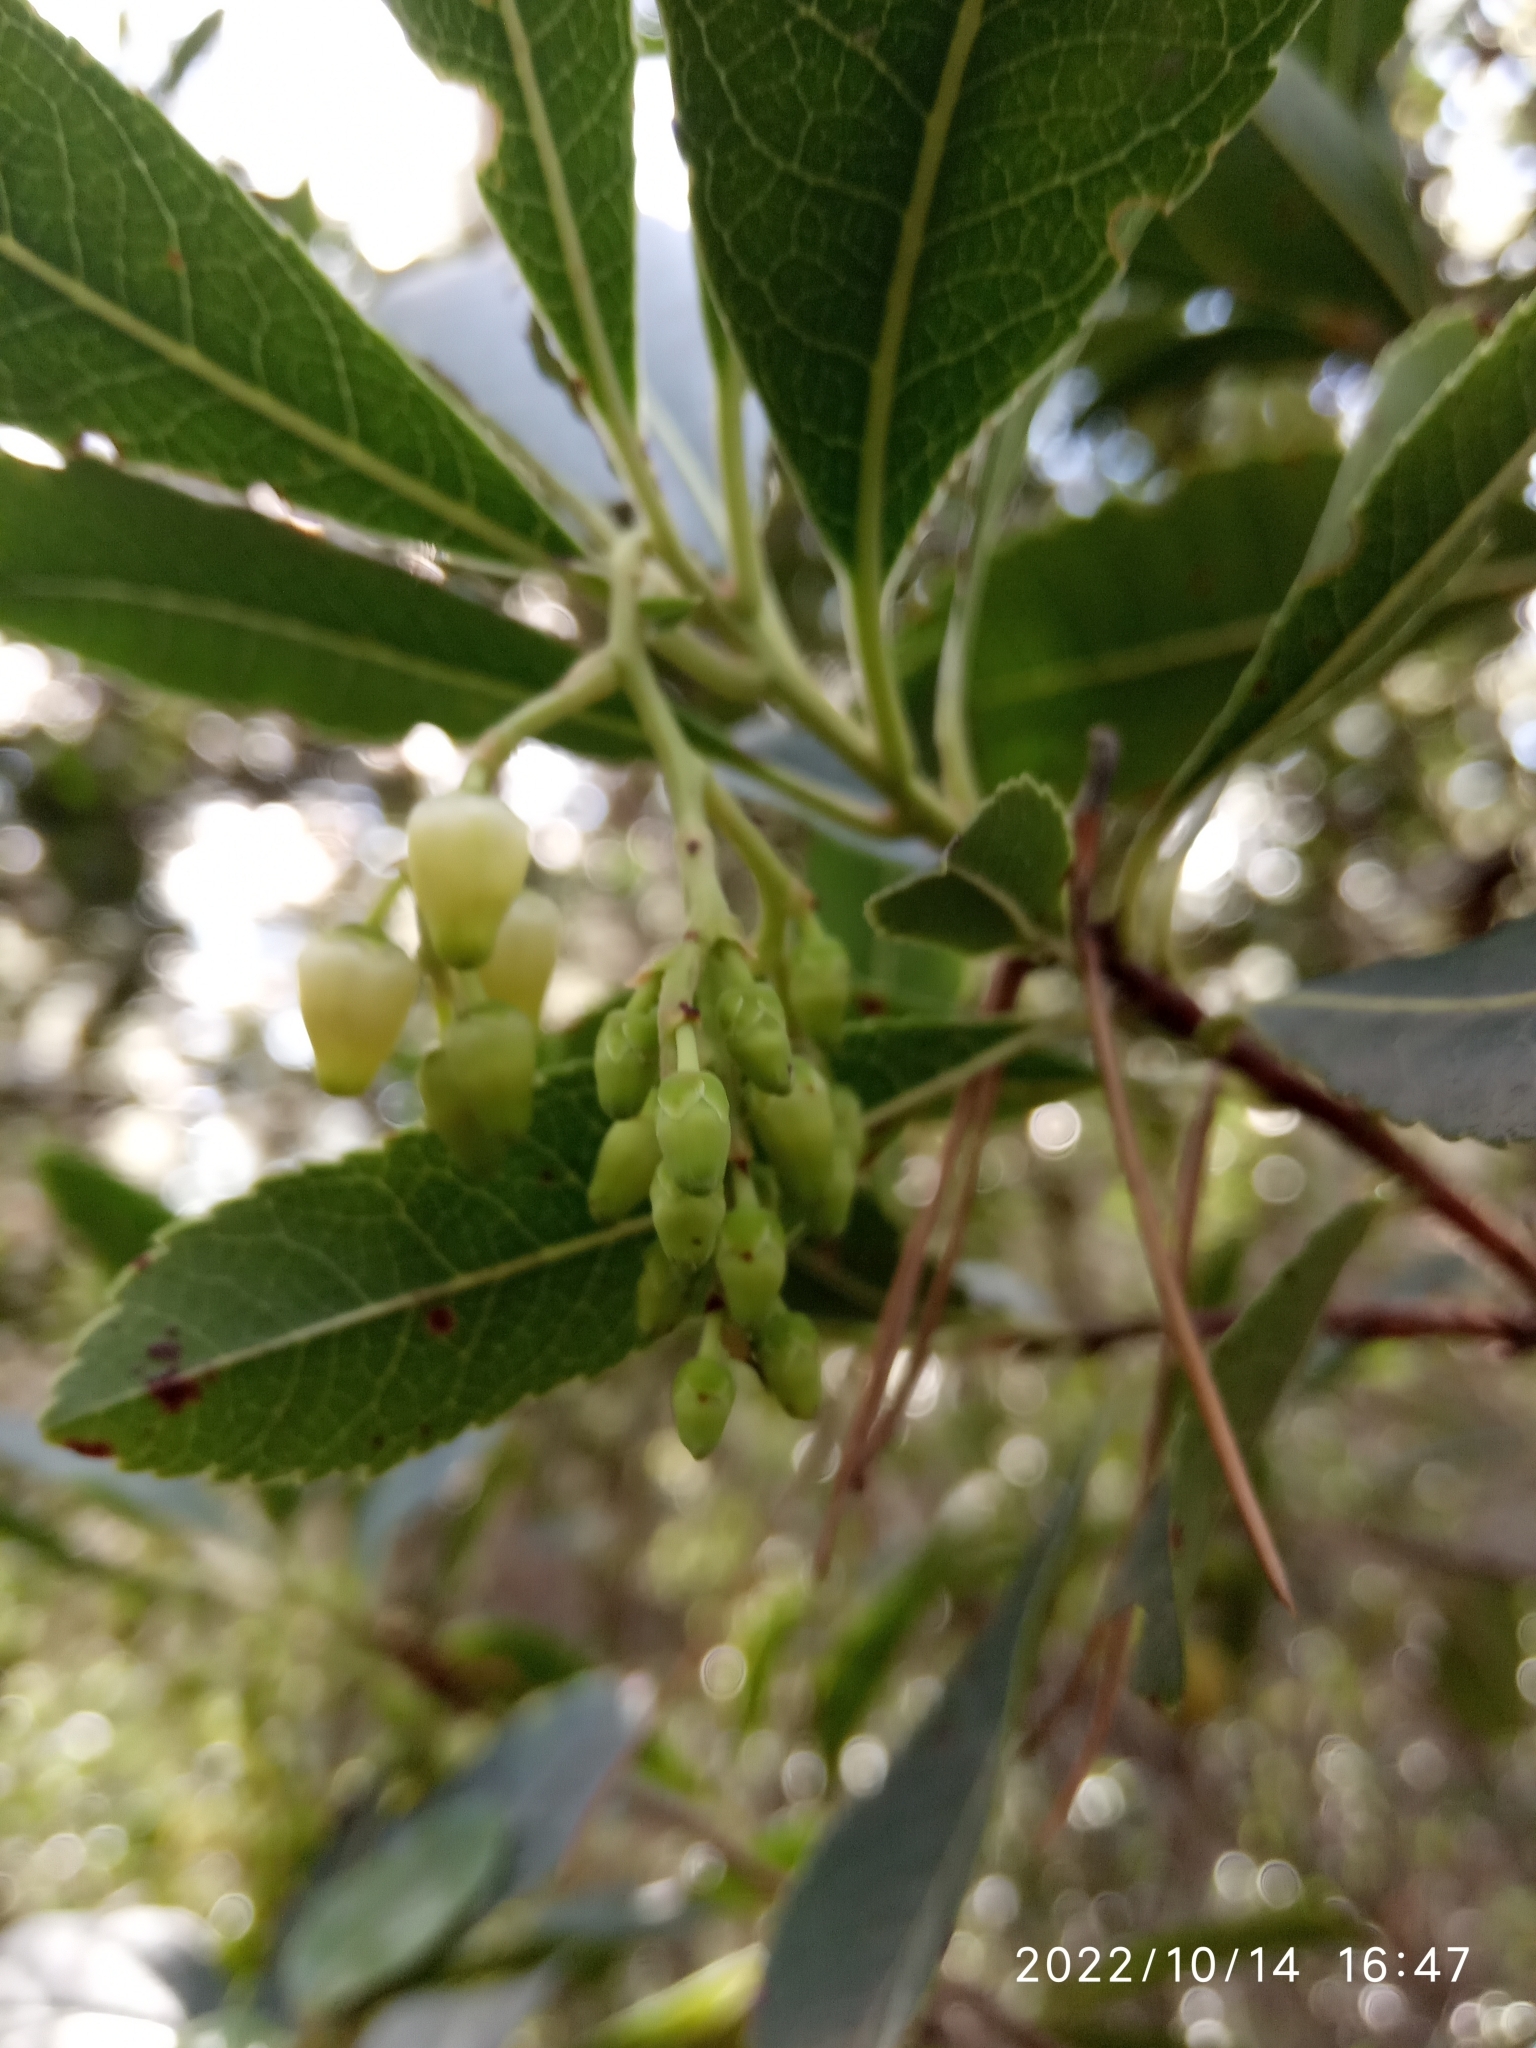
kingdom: Plantae
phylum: Tracheophyta
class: Magnoliopsida
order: Ericales
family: Ericaceae
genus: Arbutus
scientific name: Arbutus unedo
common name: Strawberry-tree
